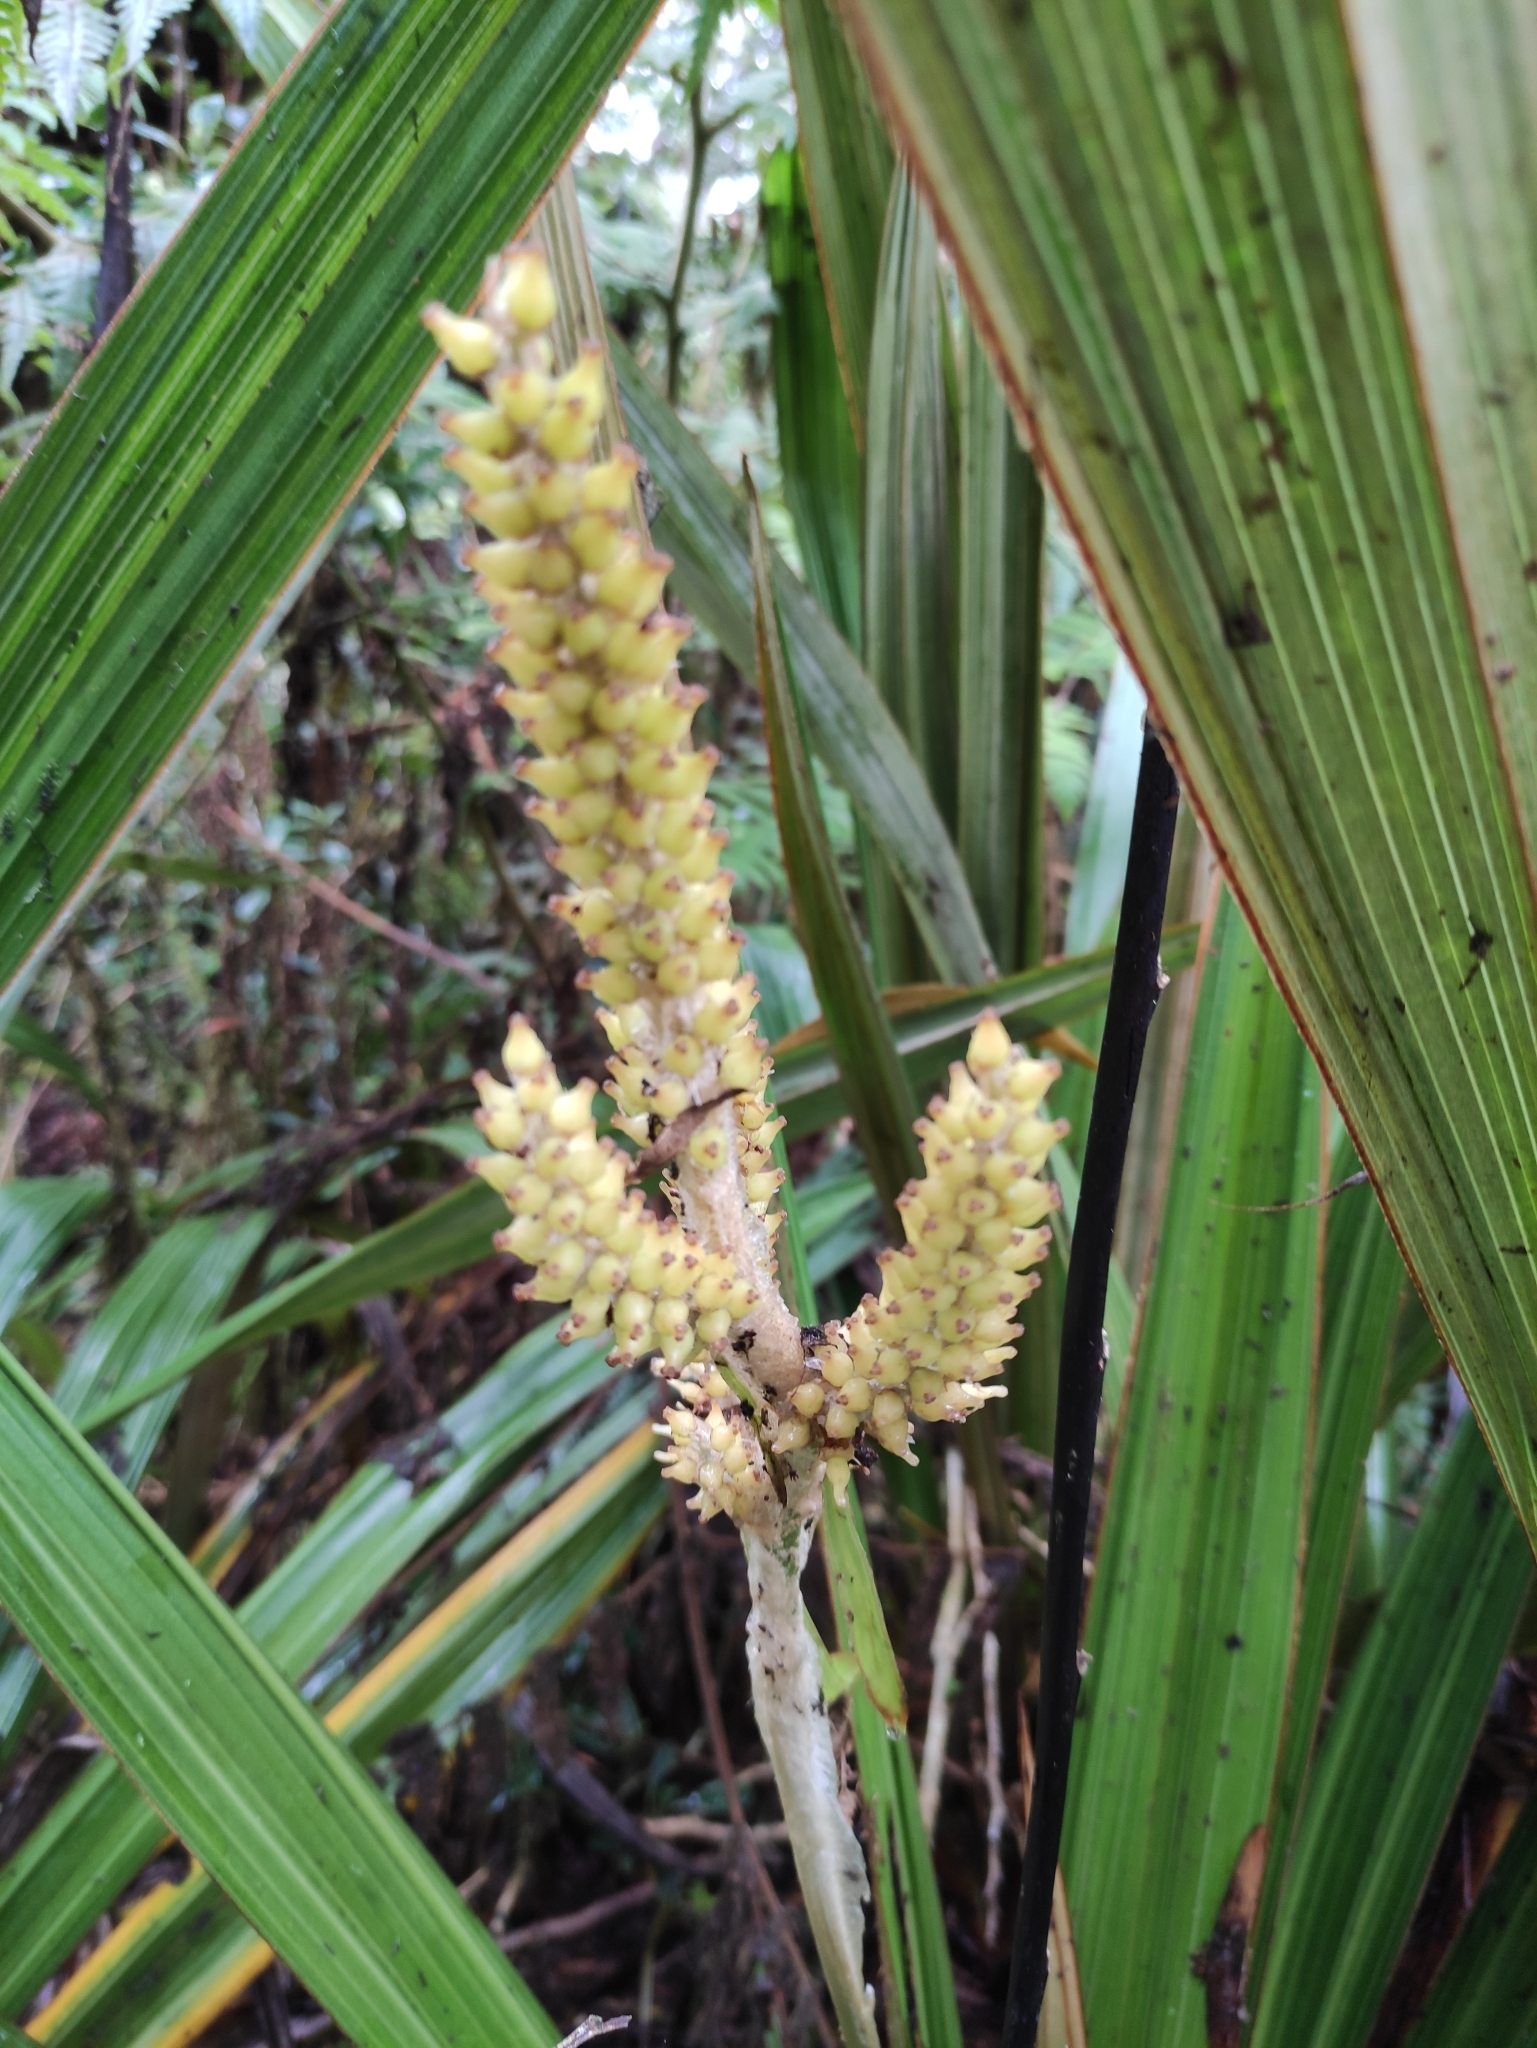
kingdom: Plantae
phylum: Tracheophyta
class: Liliopsida
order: Asparagales
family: Asteliaceae
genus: Astelia
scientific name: Astelia hemichrysa
